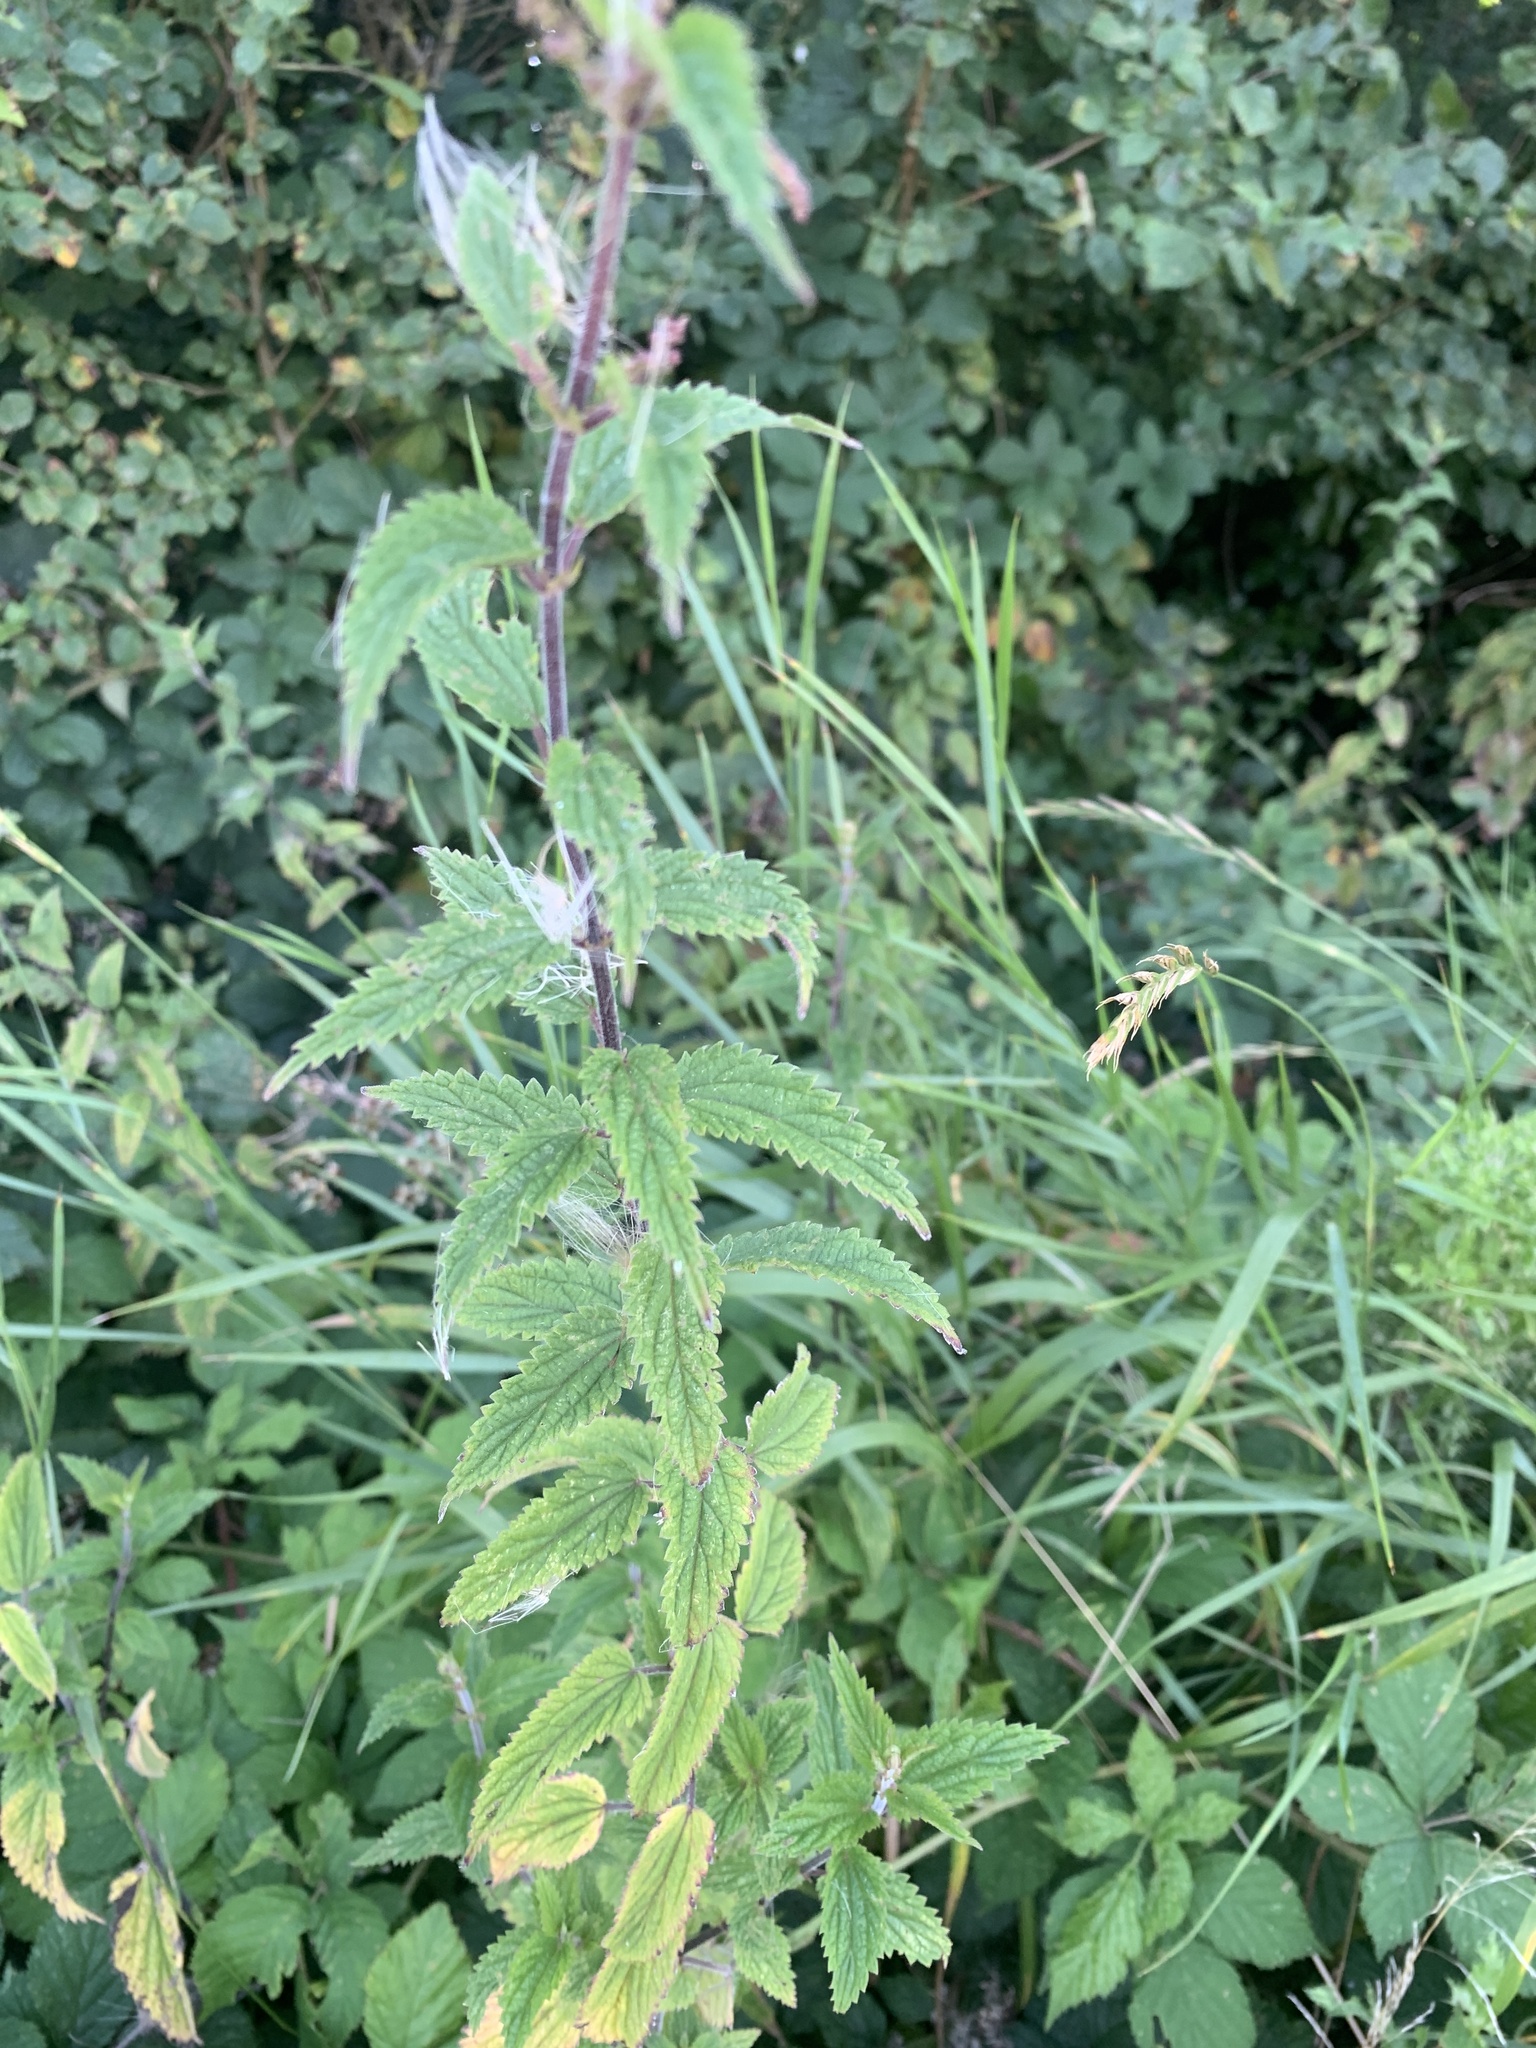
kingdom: Plantae
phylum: Tracheophyta
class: Magnoliopsida
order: Rosales
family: Urticaceae
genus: Urtica
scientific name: Urtica dioica
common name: Common nettle
